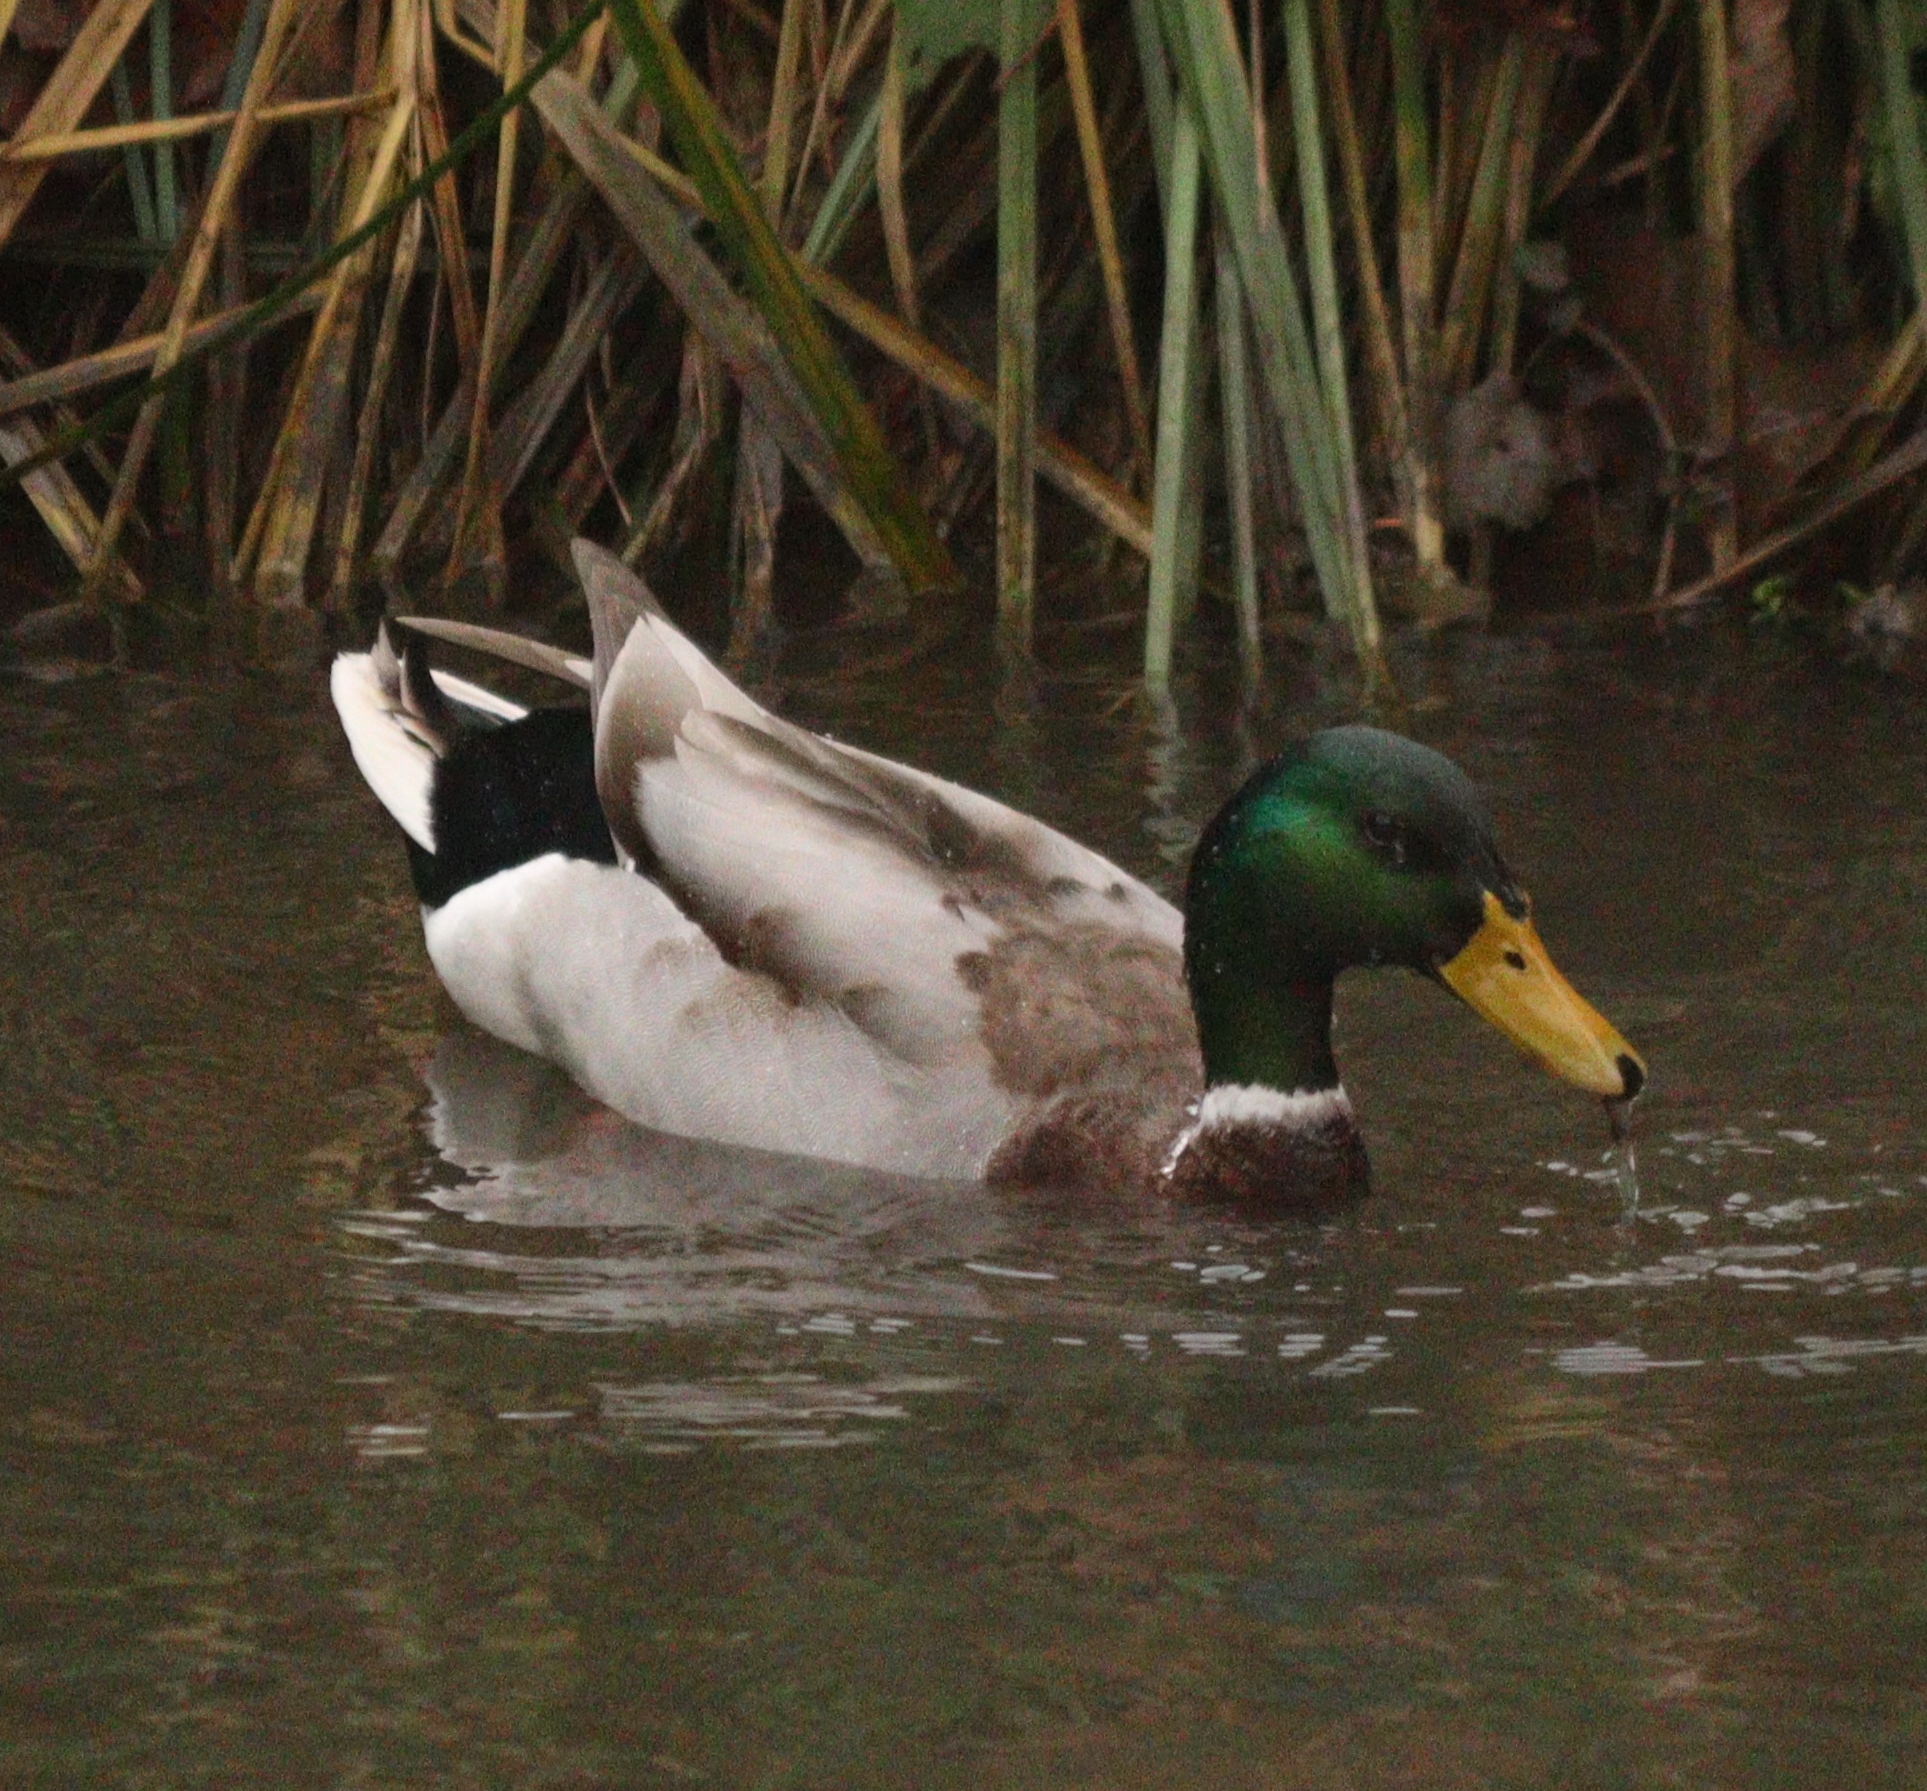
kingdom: Animalia
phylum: Chordata
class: Aves
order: Anseriformes
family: Anatidae
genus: Anas
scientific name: Anas platyrhynchos
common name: Mallard
